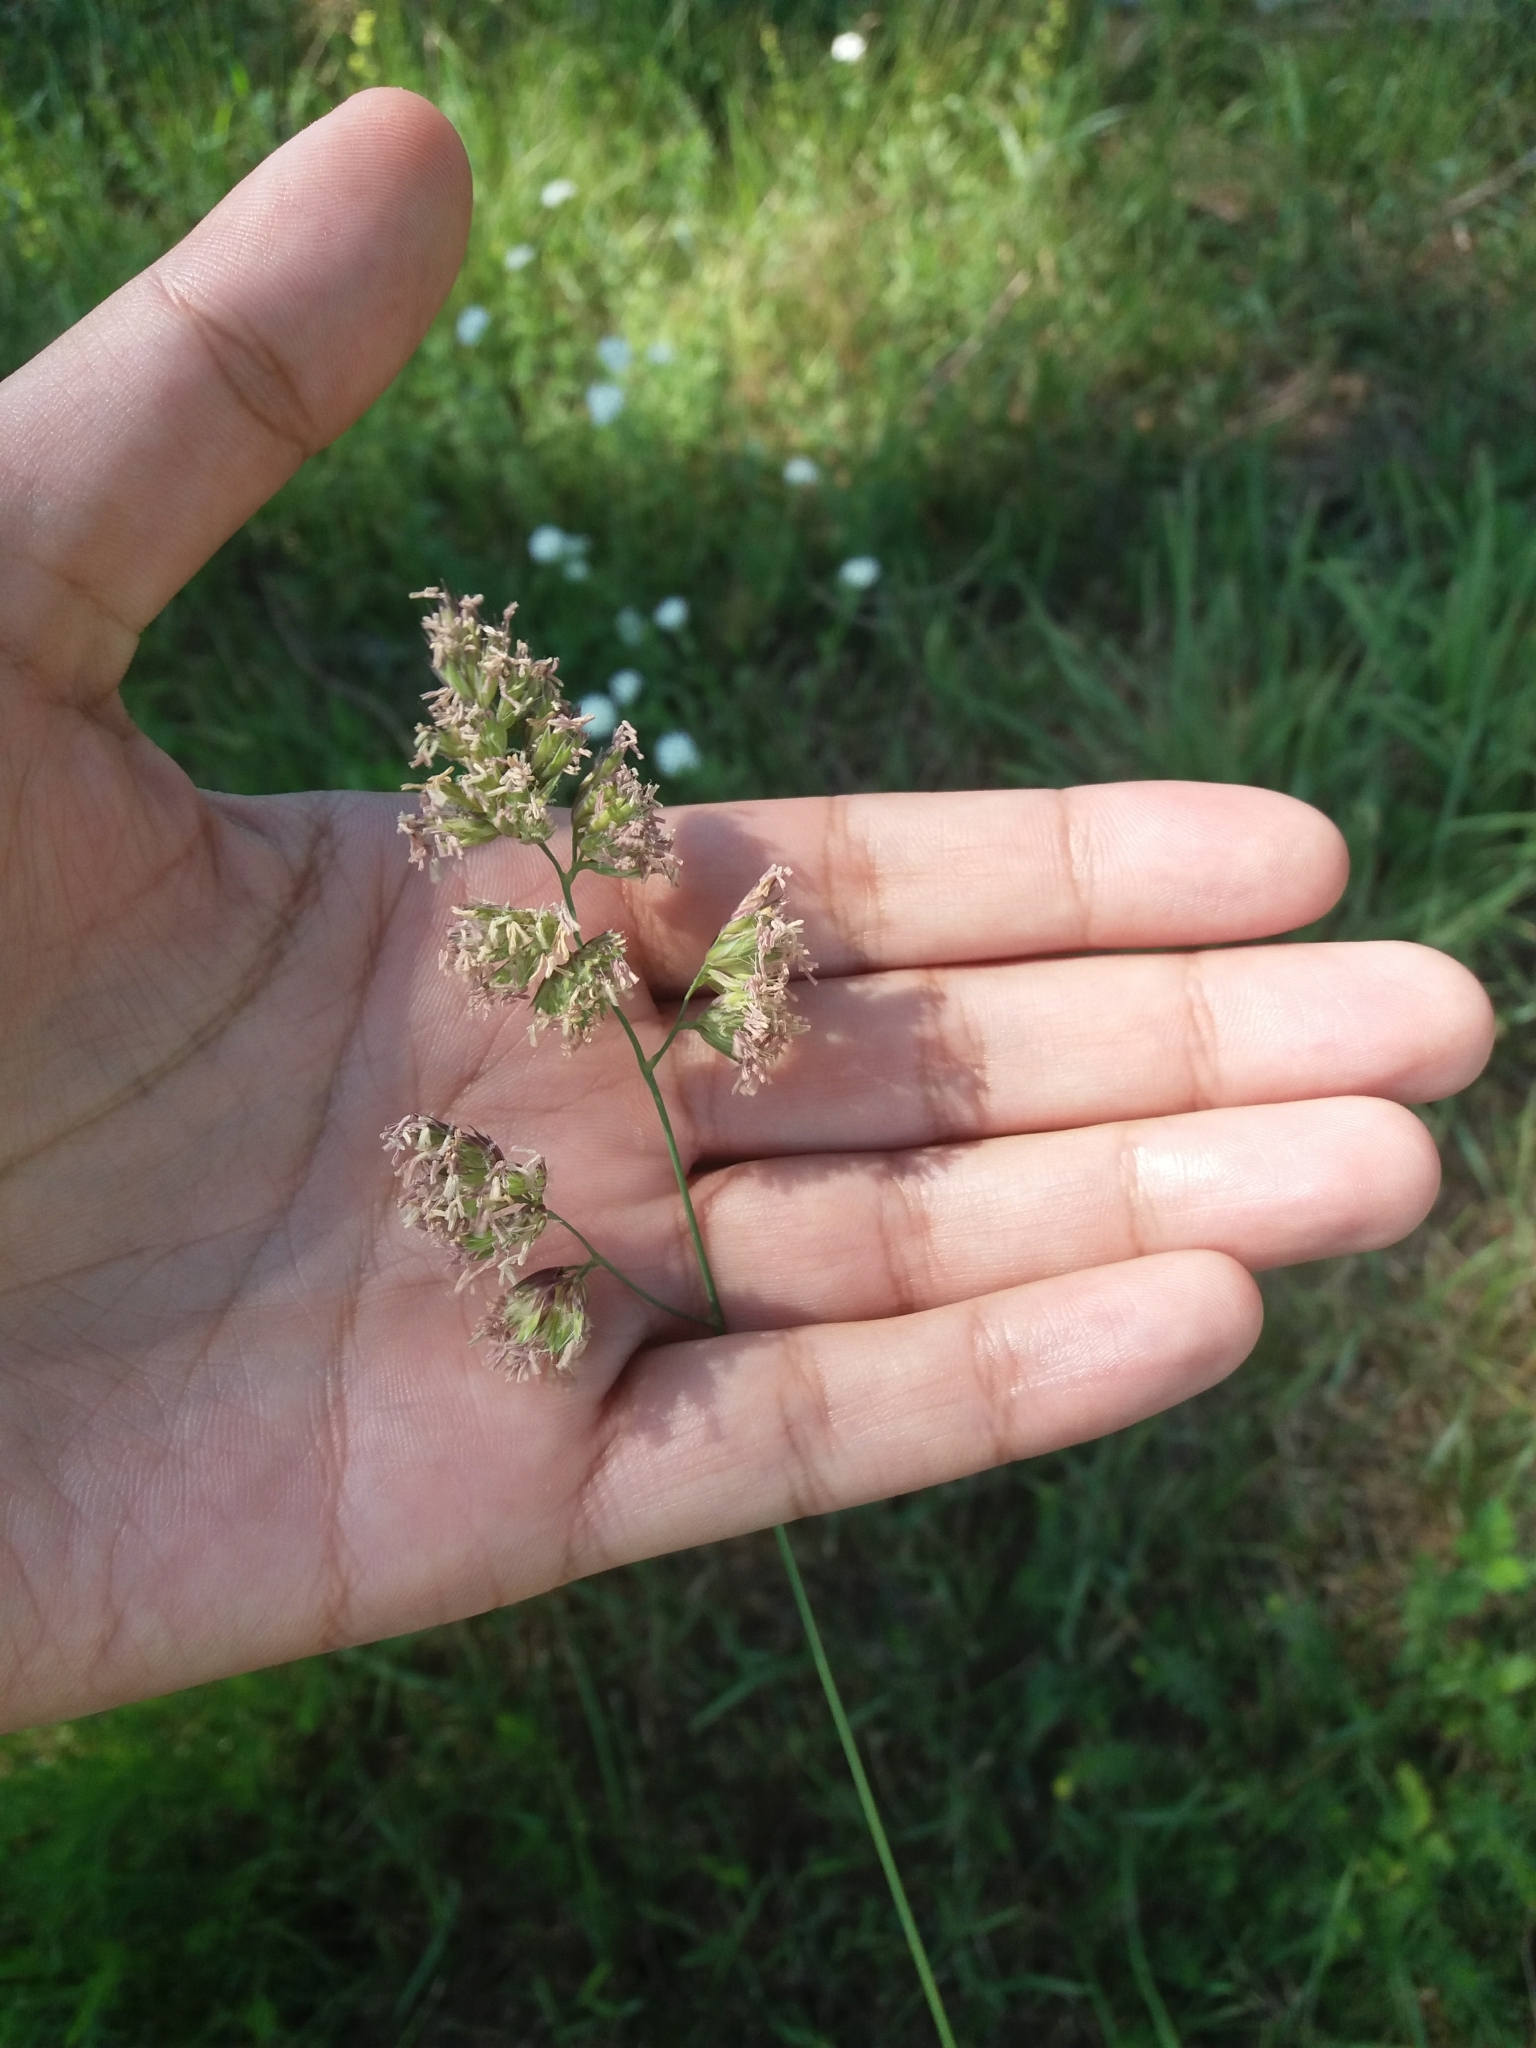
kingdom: Plantae
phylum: Tracheophyta
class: Liliopsida
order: Poales
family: Poaceae
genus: Dactylis
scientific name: Dactylis glomerata
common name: Orchardgrass
